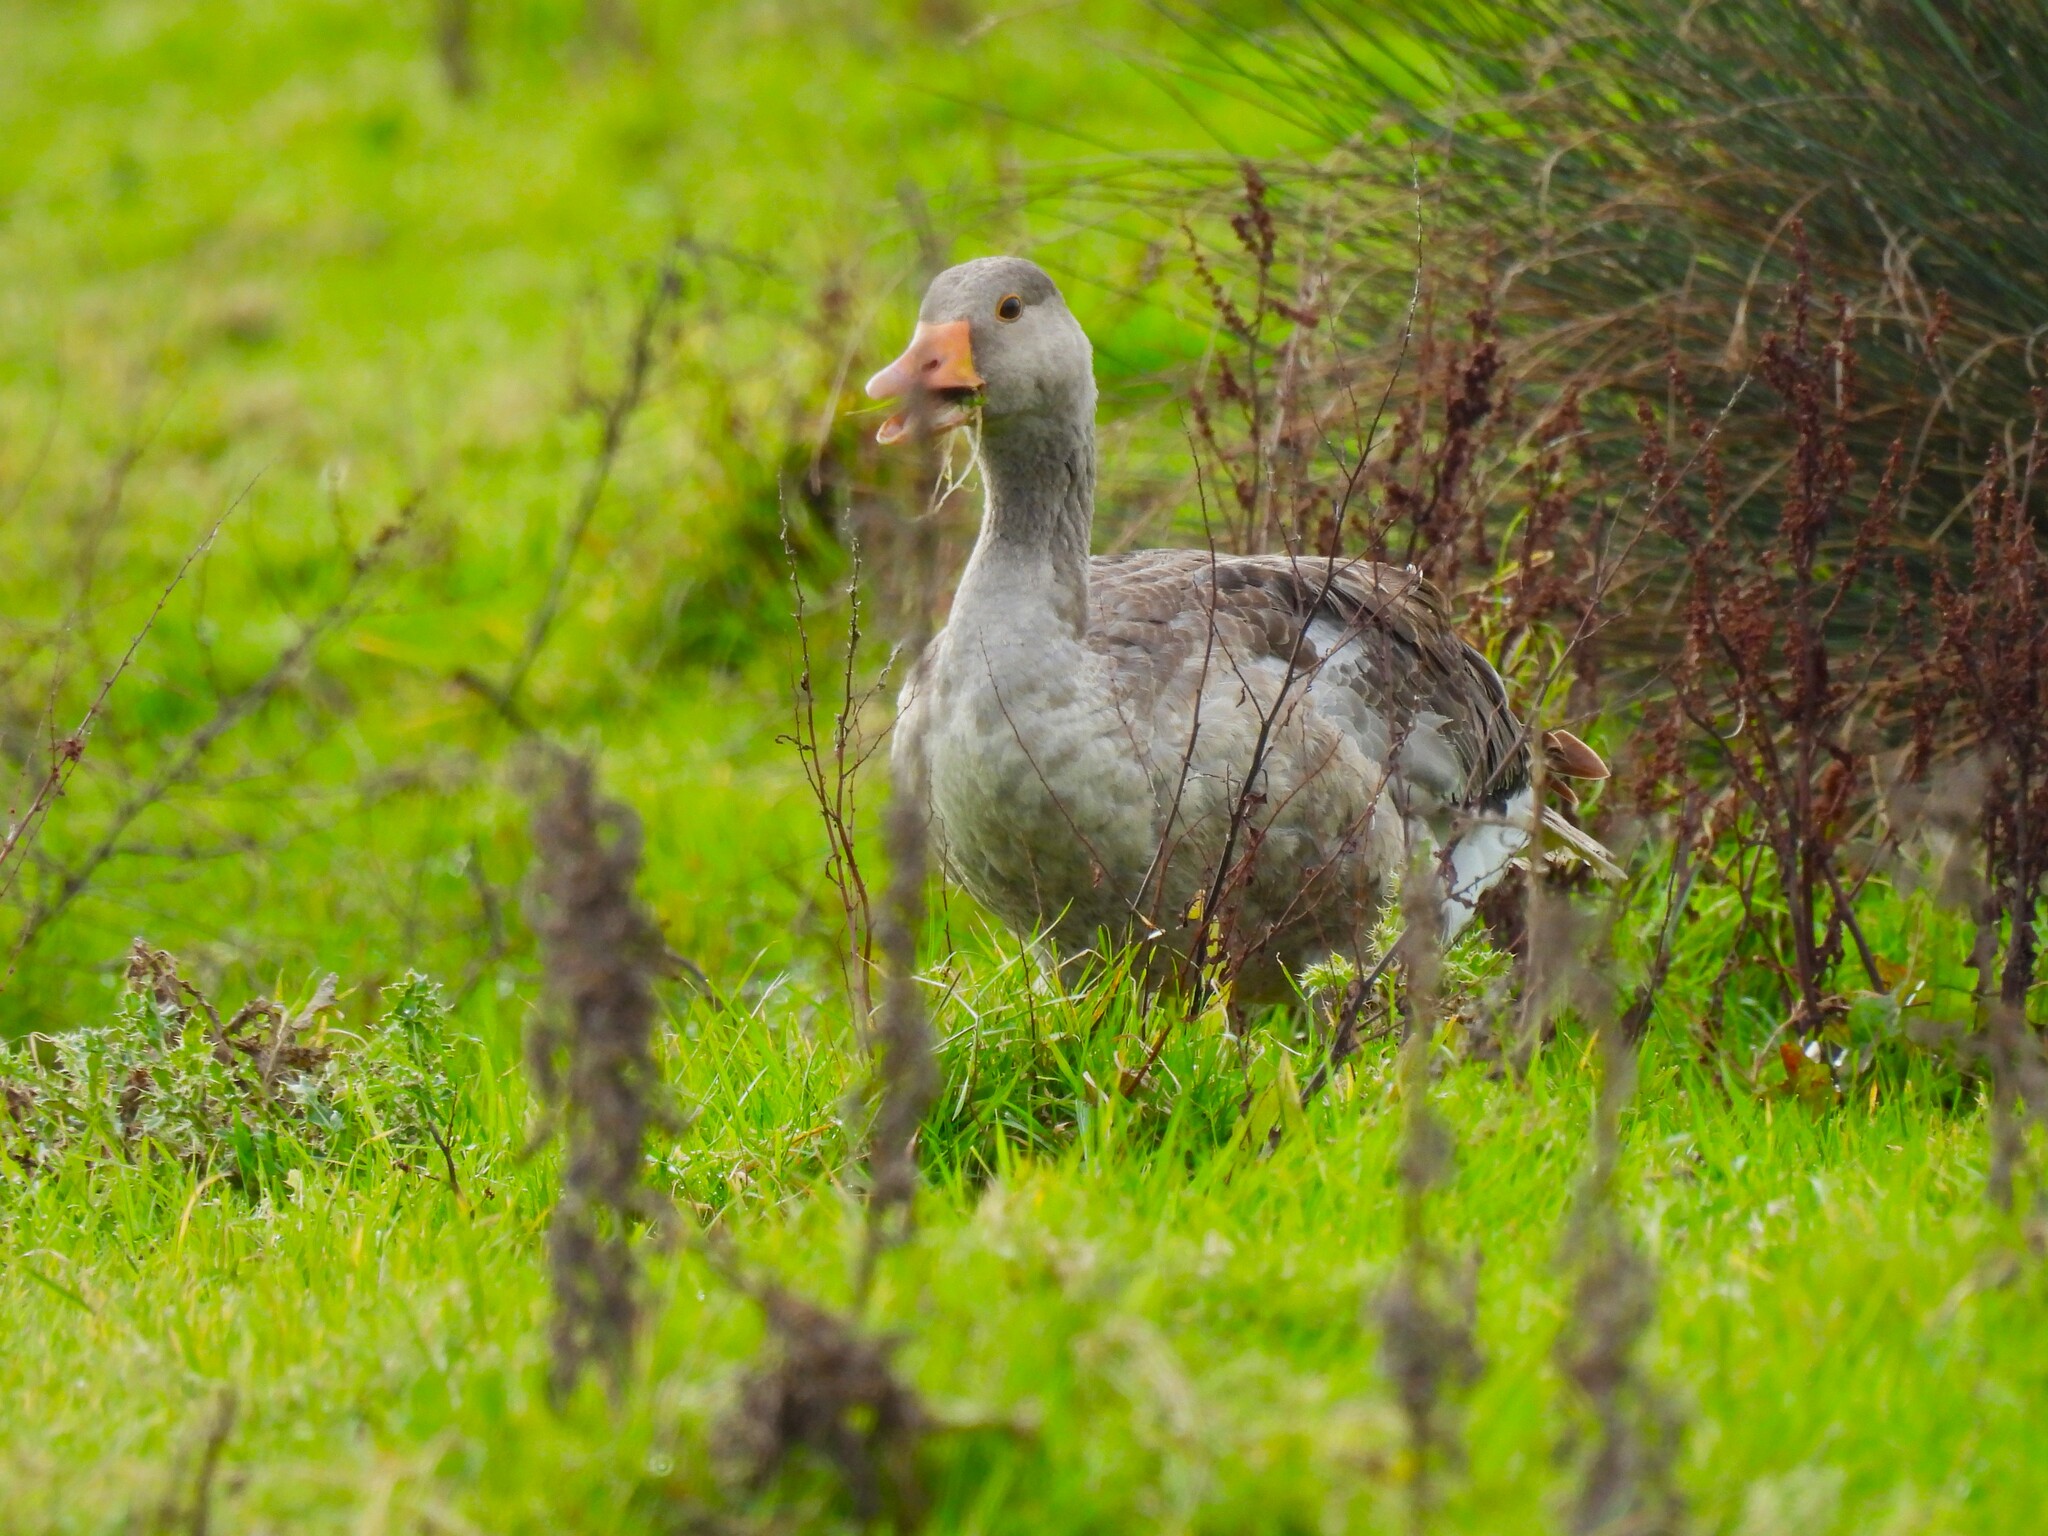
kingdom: Animalia
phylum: Chordata
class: Aves
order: Anseriformes
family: Anatidae
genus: Anser
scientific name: Anser anser
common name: Greylag goose
